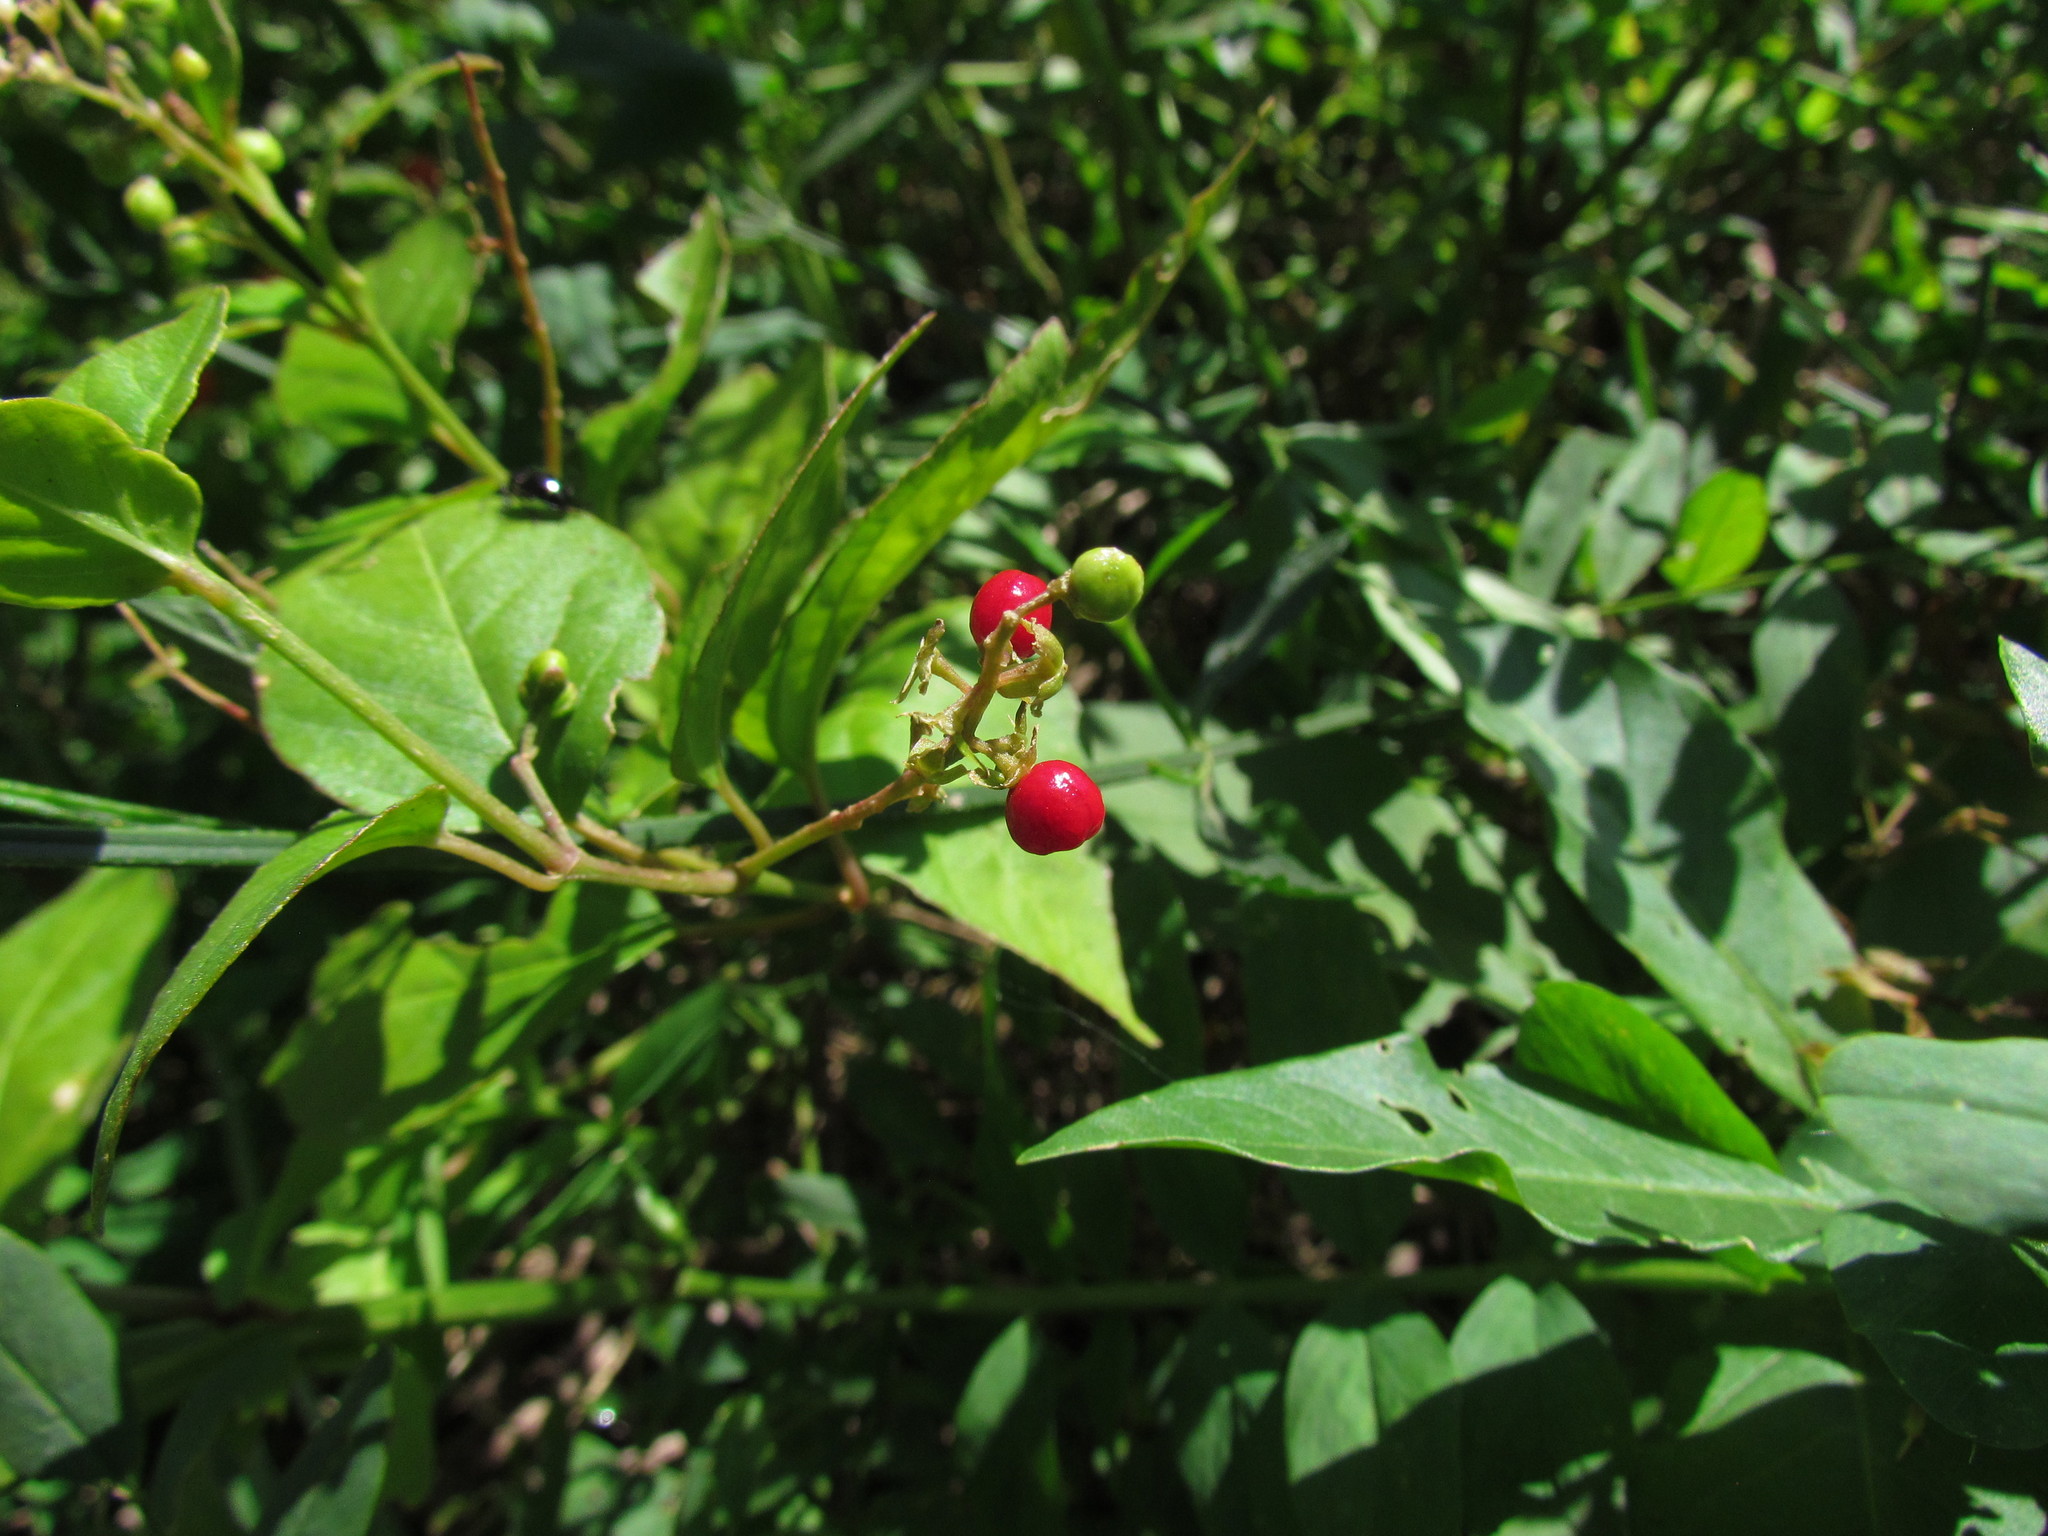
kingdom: Plantae
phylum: Tracheophyta
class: Magnoliopsida
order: Caryophyllales
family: Phytolaccaceae
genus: Rivina
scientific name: Rivina humilis
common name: Rougeplant
